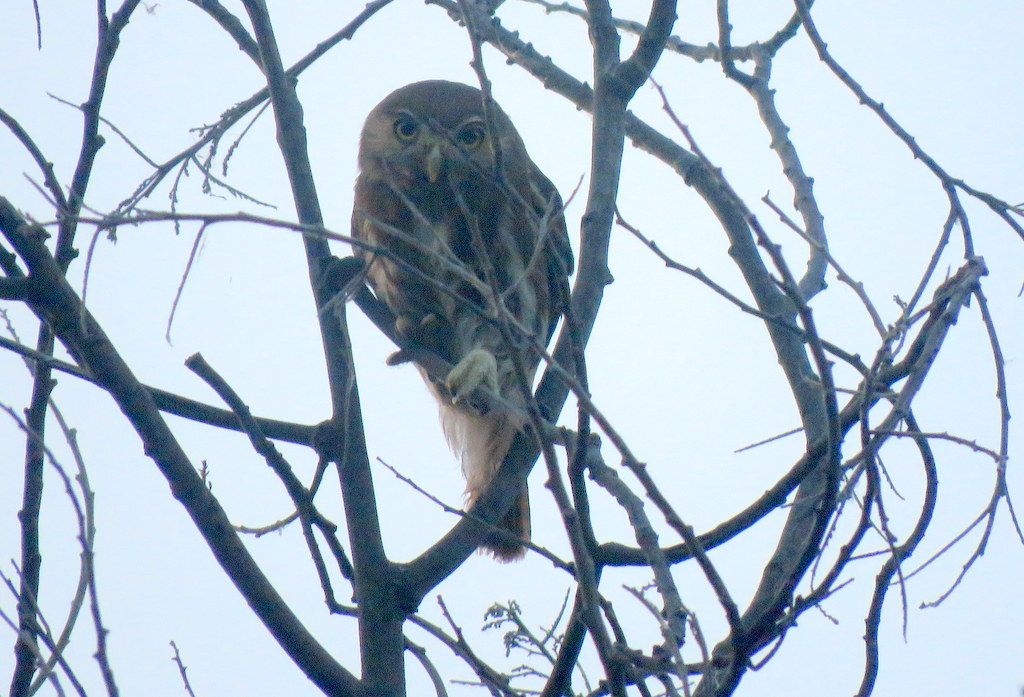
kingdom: Animalia
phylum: Chordata
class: Aves
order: Strigiformes
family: Strigidae
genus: Glaucidium
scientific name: Glaucidium brasilianum
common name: Ferruginous pygmy-owl
